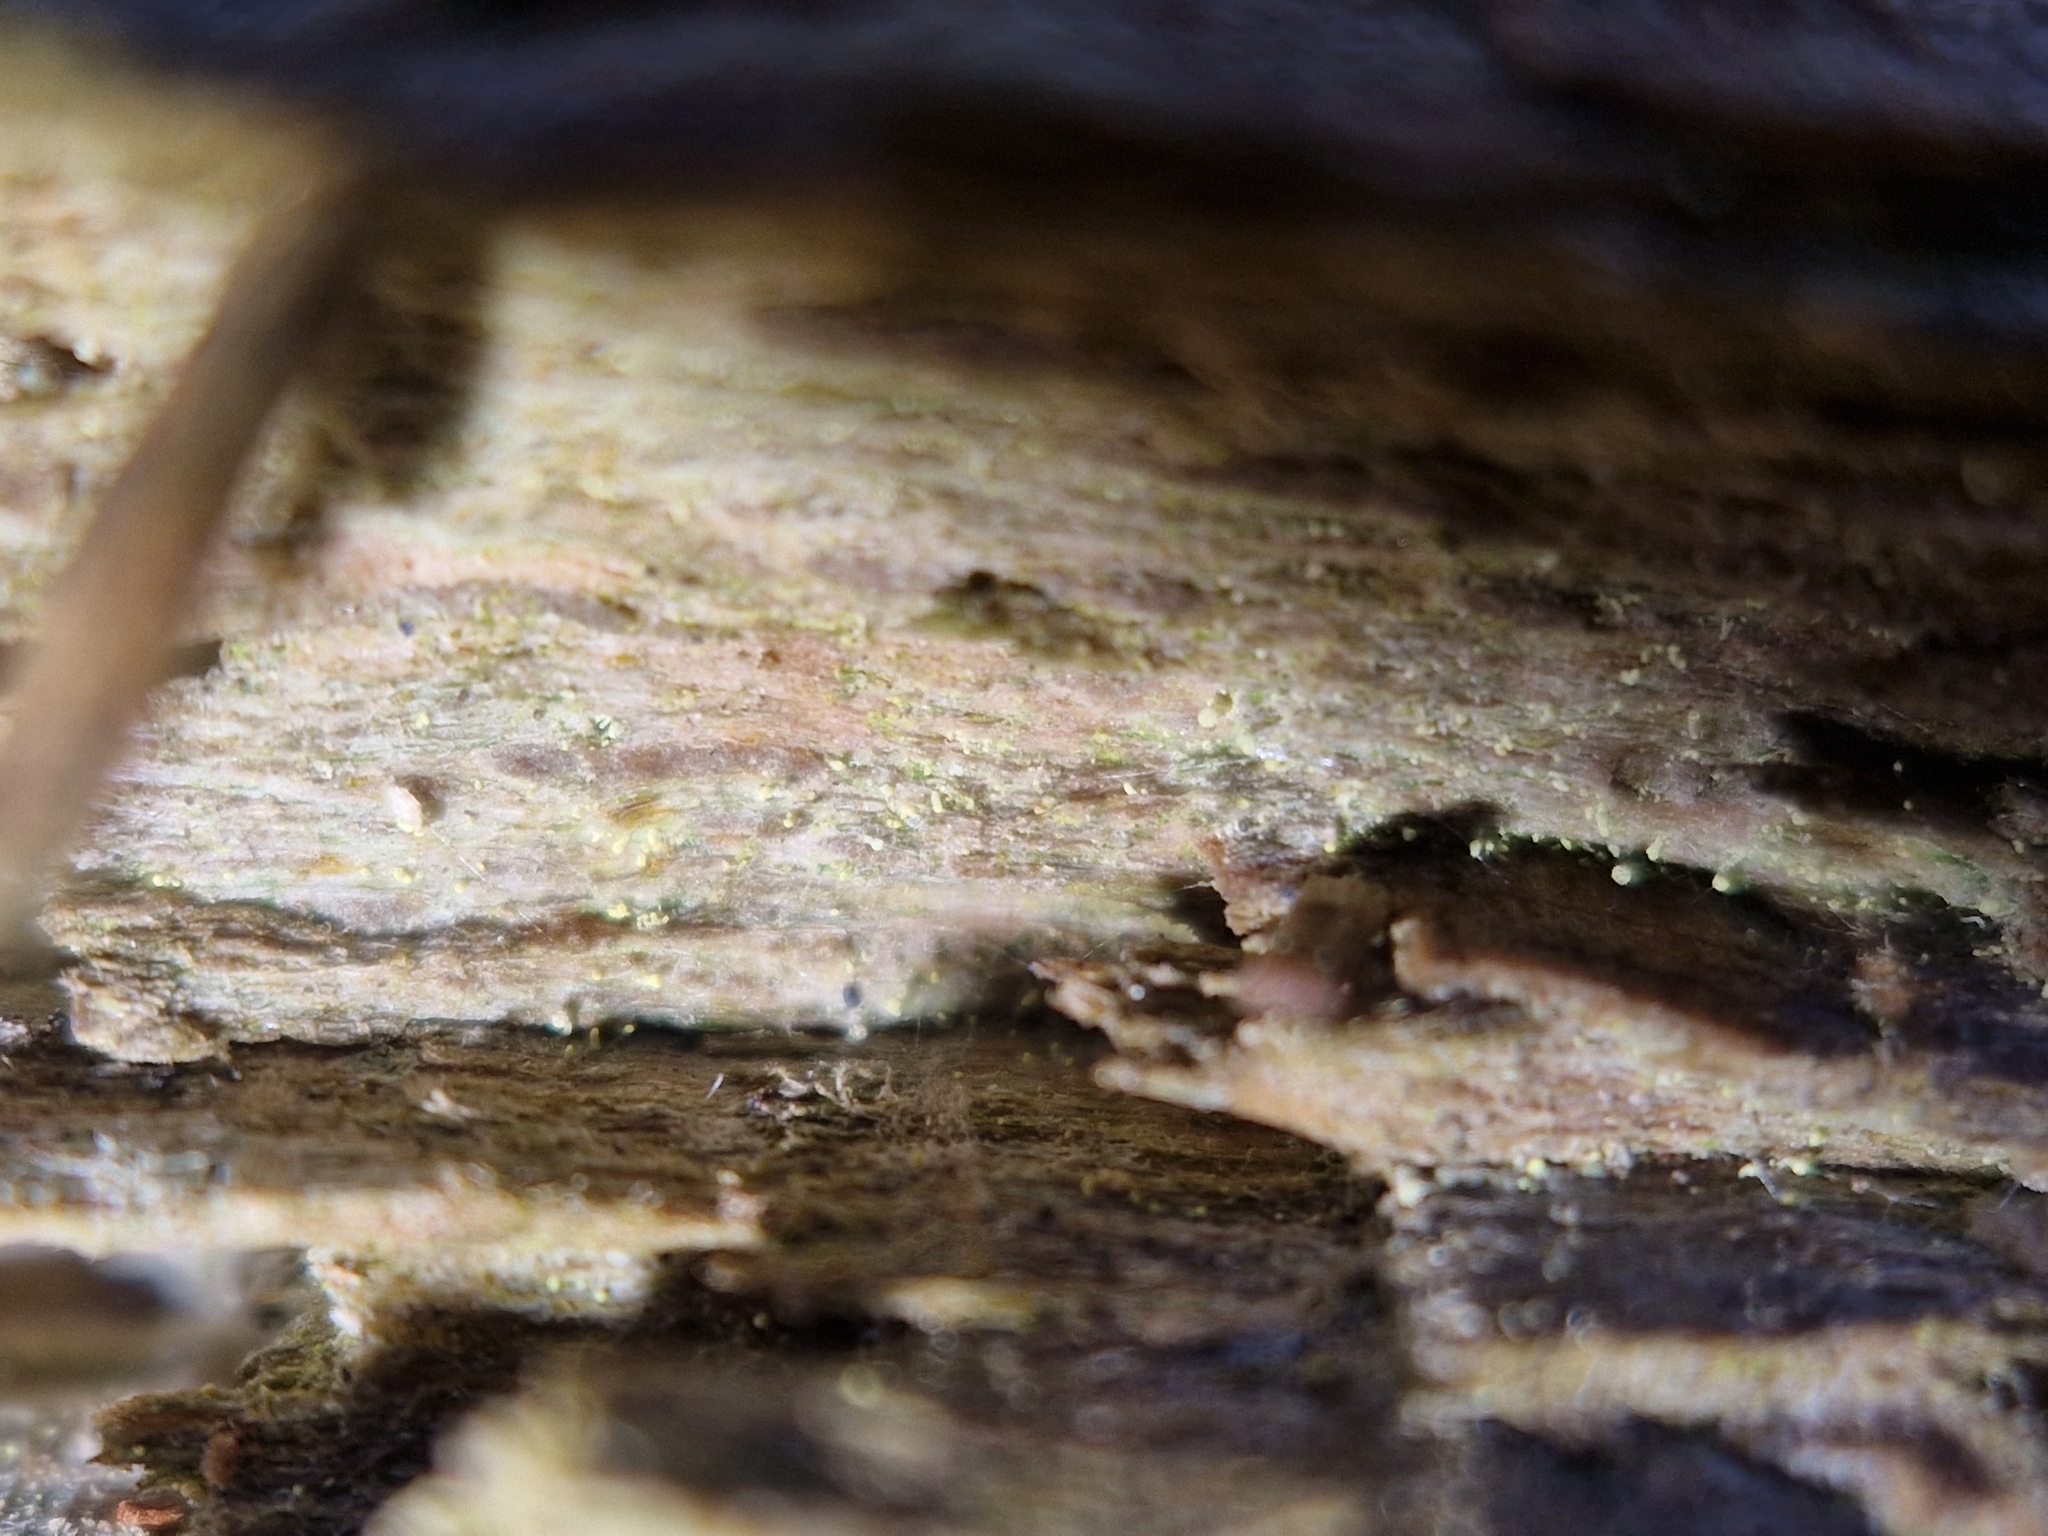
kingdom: Fungi
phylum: Ascomycota
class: Coniocybomycetes
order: Coniocybales
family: Coniocybaceae
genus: Chaenotheca
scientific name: Chaenotheca brachypoda
